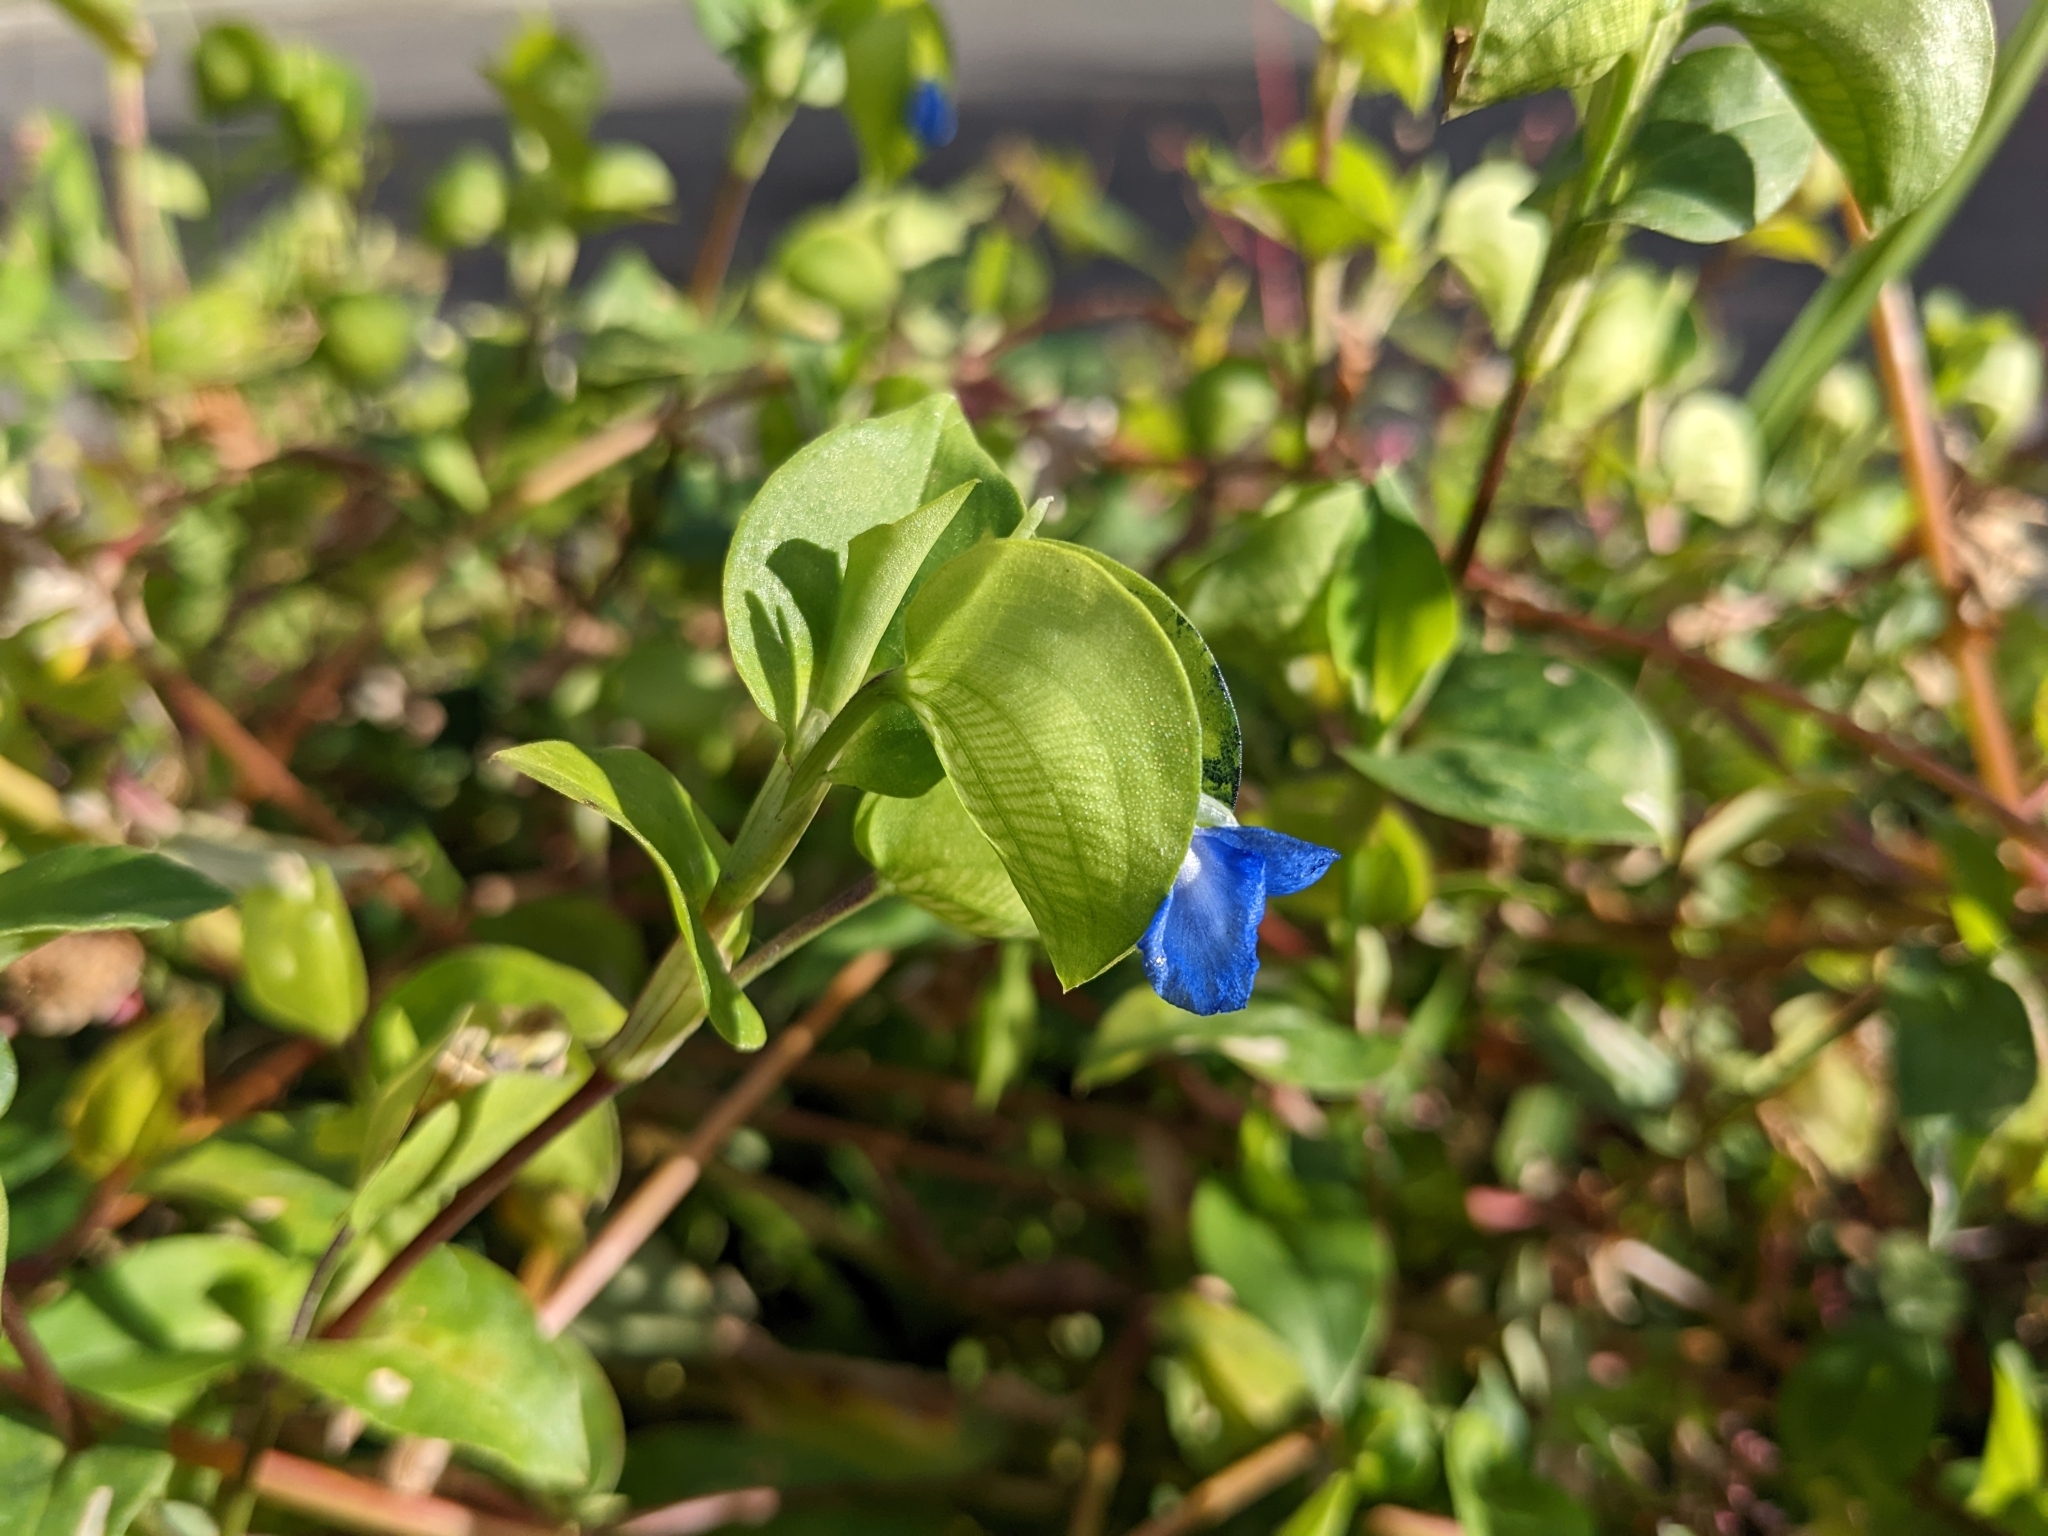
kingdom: Plantae
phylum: Tracheophyta
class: Liliopsida
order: Commelinales
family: Commelinaceae
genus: Commelina
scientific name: Commelina communis
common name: Asiatic dayflower
